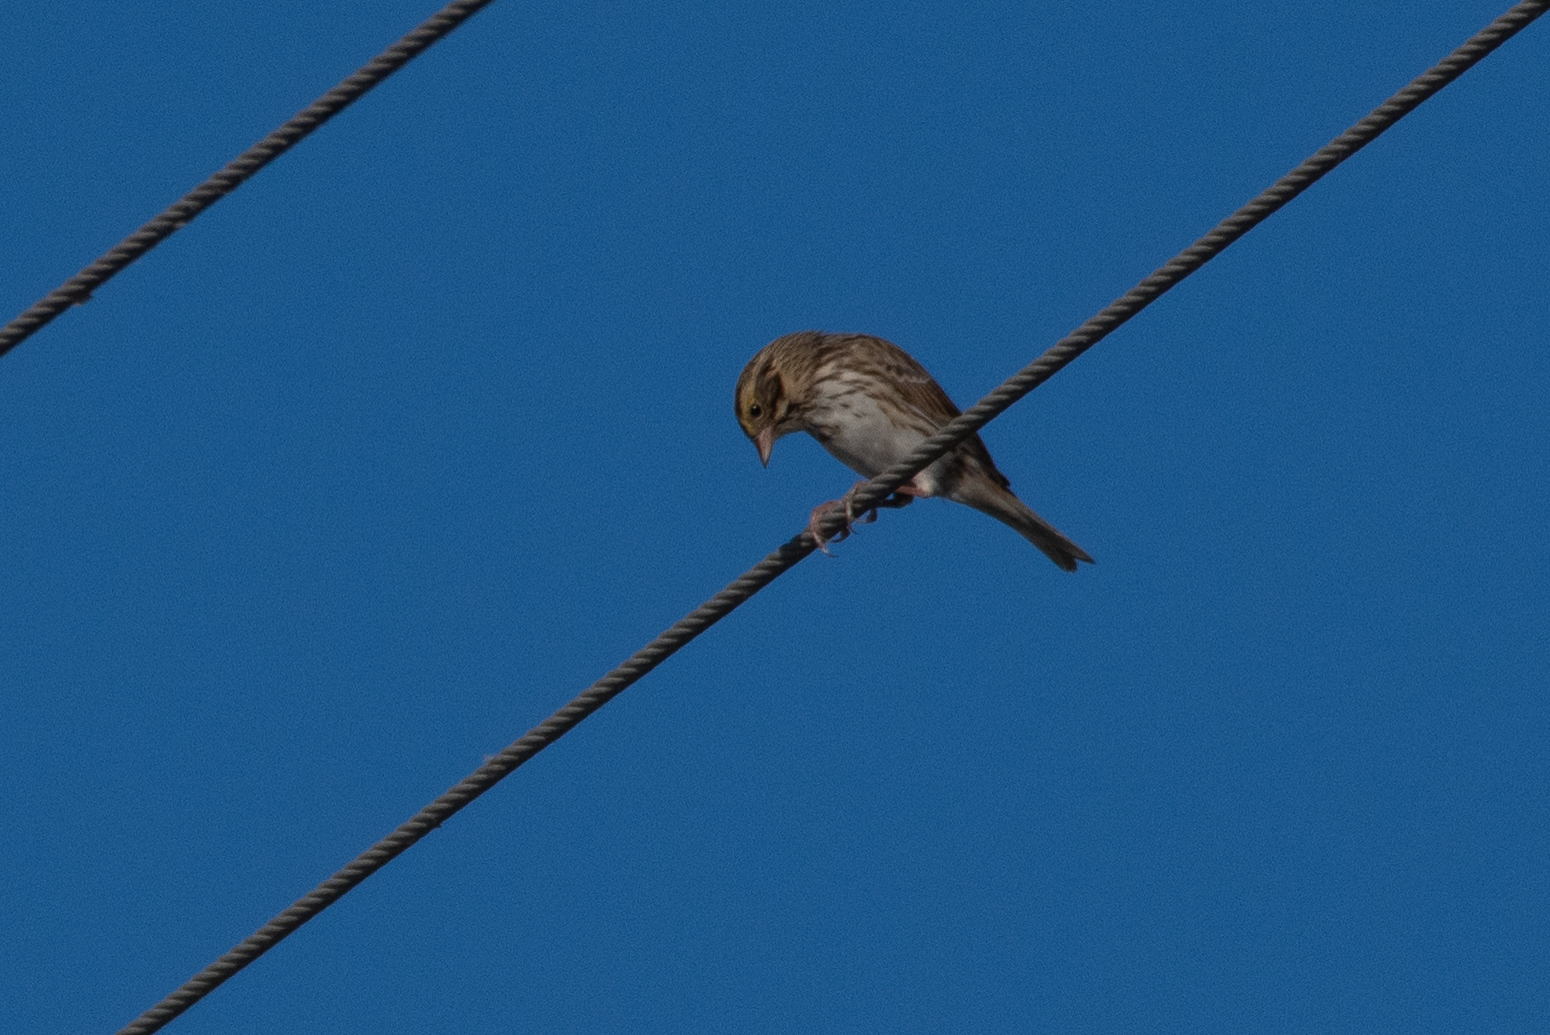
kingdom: Animalia
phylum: Chordata
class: Aves
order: Passeriformes
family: Passerellidae
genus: Passerculus
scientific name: Passerculus sandwichensis
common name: Savannah sparrow
